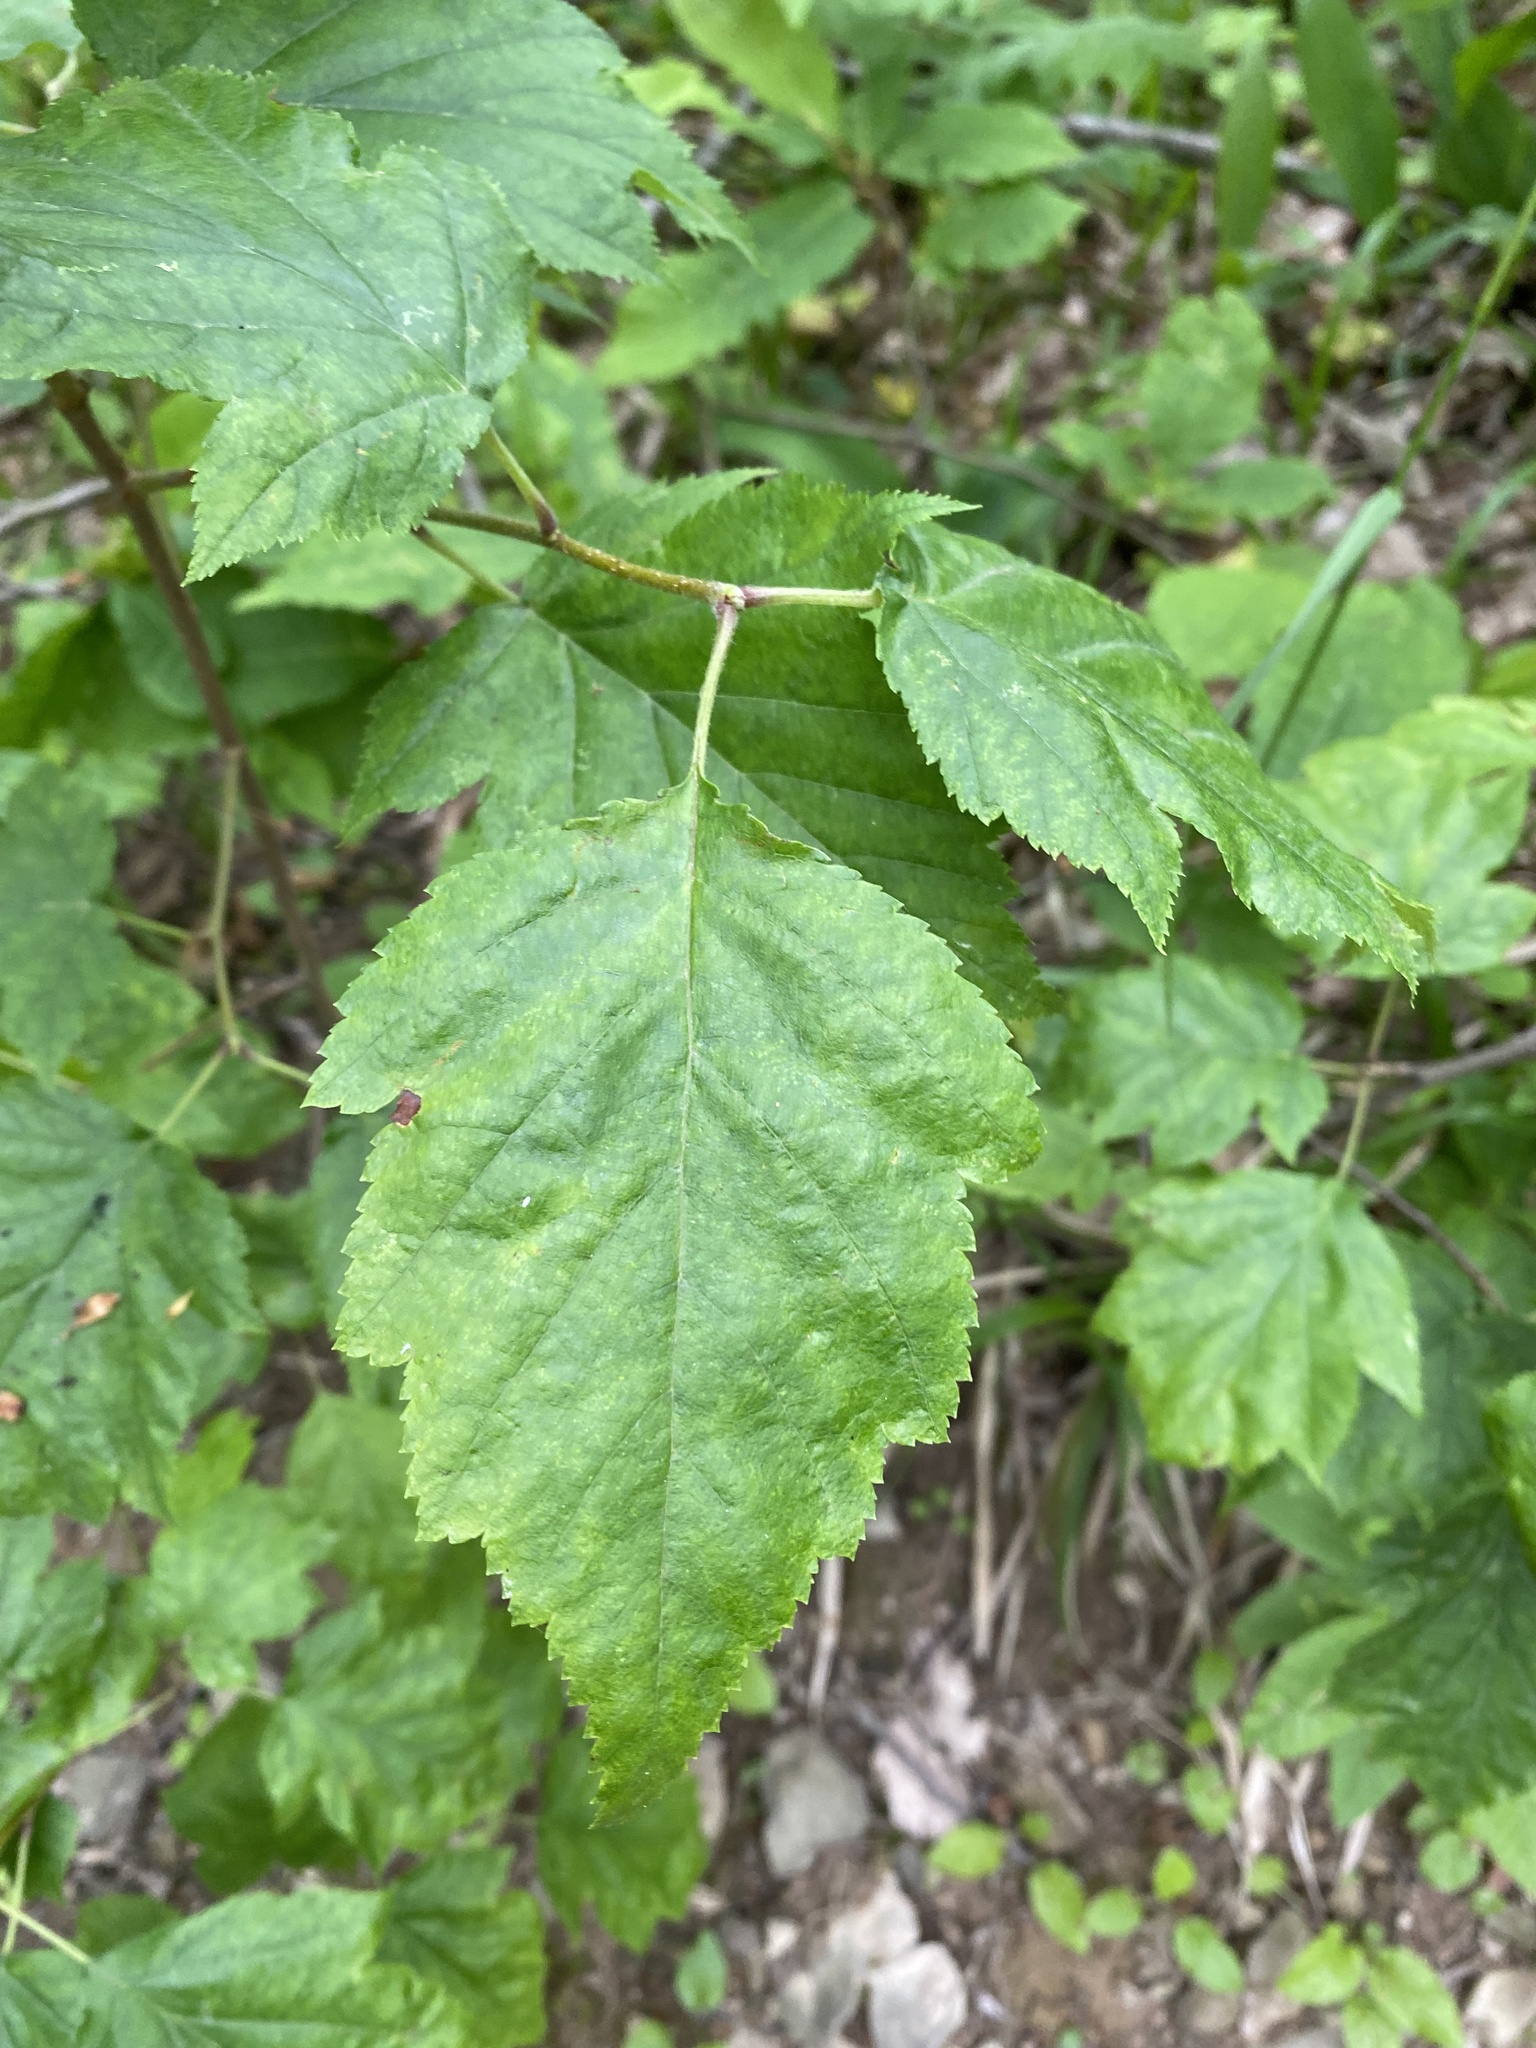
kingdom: Plantae
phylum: Tracheophyta
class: Magnoliopsida
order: Rosales
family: Rosaceae
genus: Torminalis
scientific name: Torminalis glaberrima
